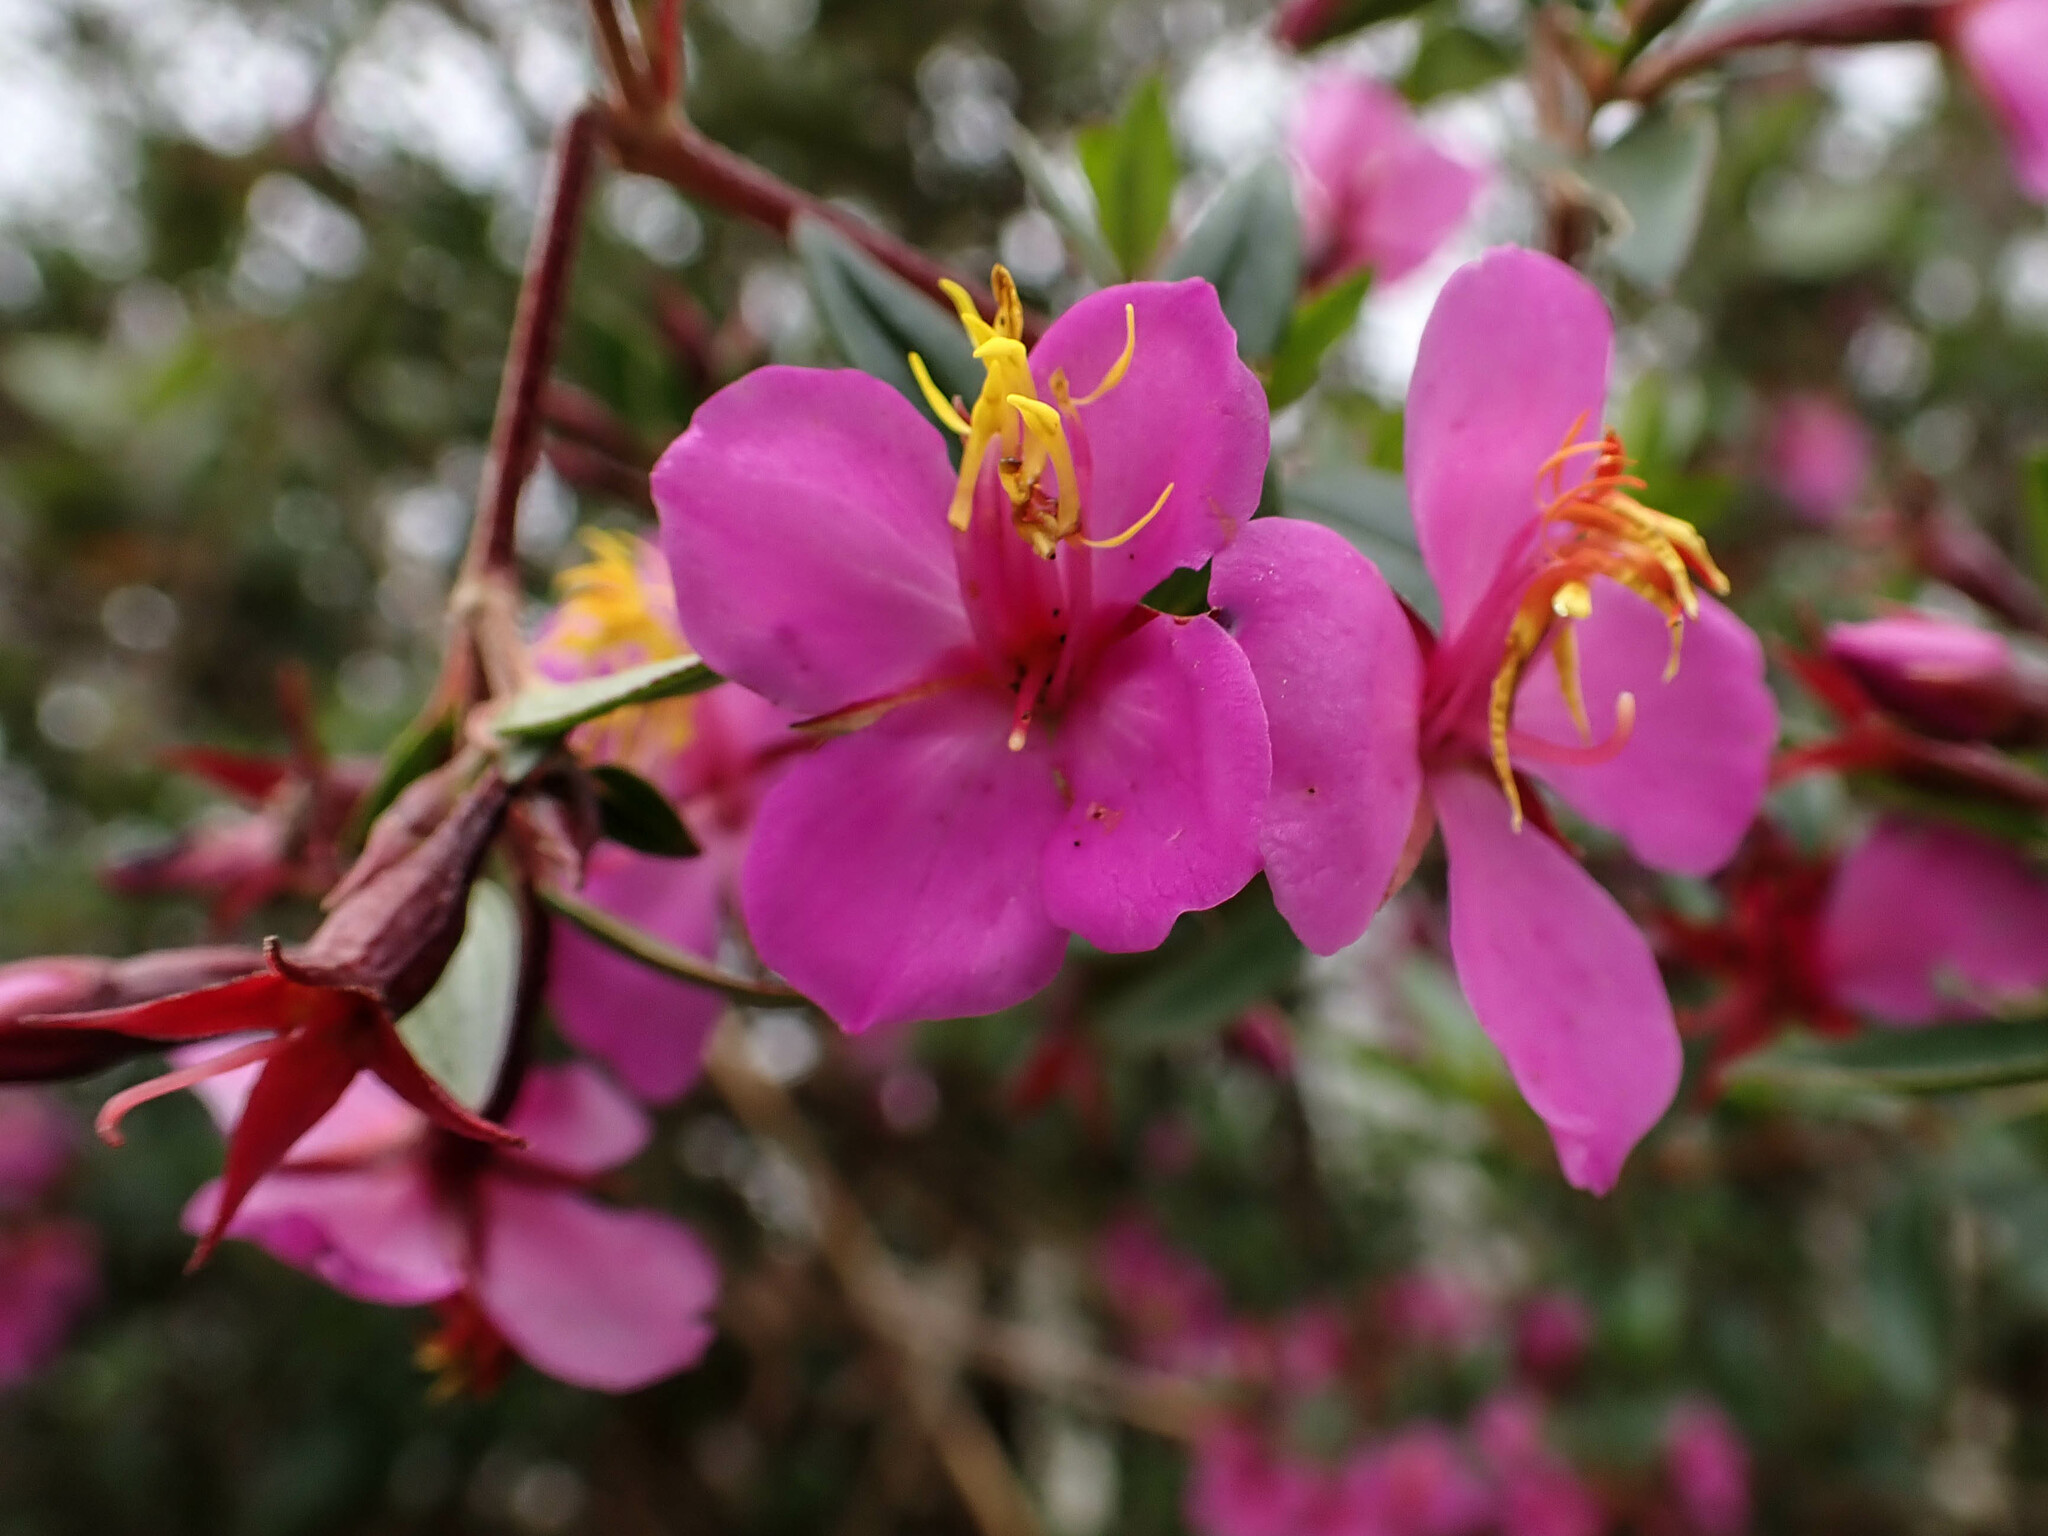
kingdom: Plantae
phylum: Tracheophyta
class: Magnoliopsida
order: Myrtales
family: Melastomataceae
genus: Monochaetum
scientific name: Monochaetum myrtoideum
